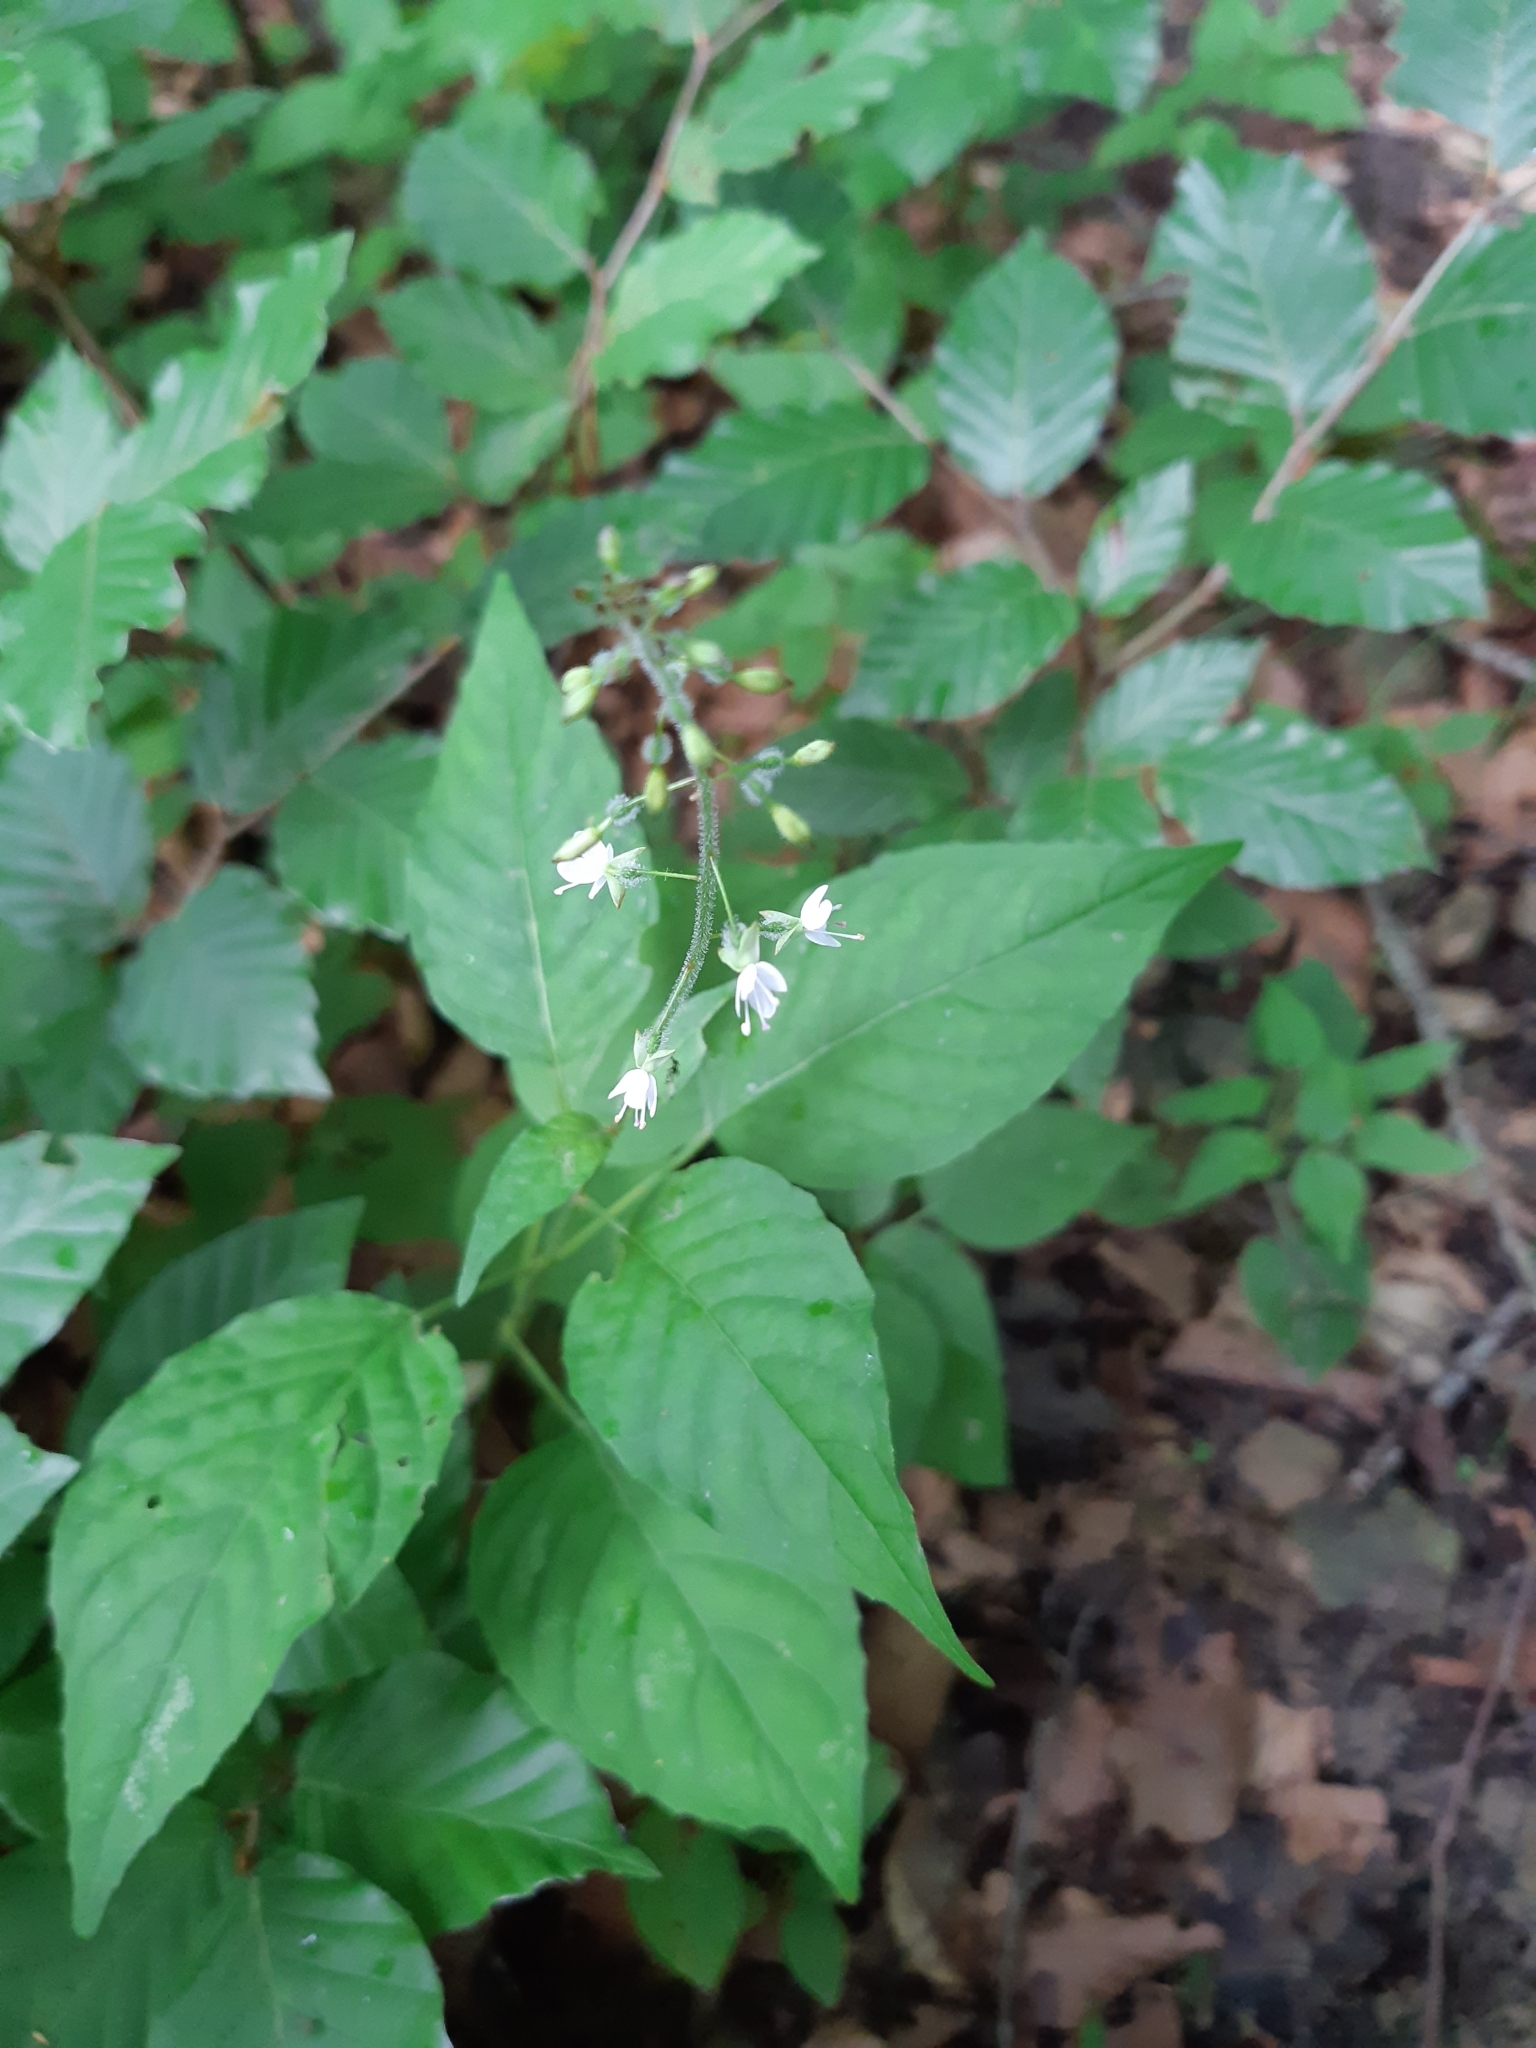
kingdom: Plantae
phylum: Tracheophyta
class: Magnoliopsida
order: Myrtales
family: Onagraceae
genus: Circaea
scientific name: Circaea lutetiana
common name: Enchanter's-nightshade
